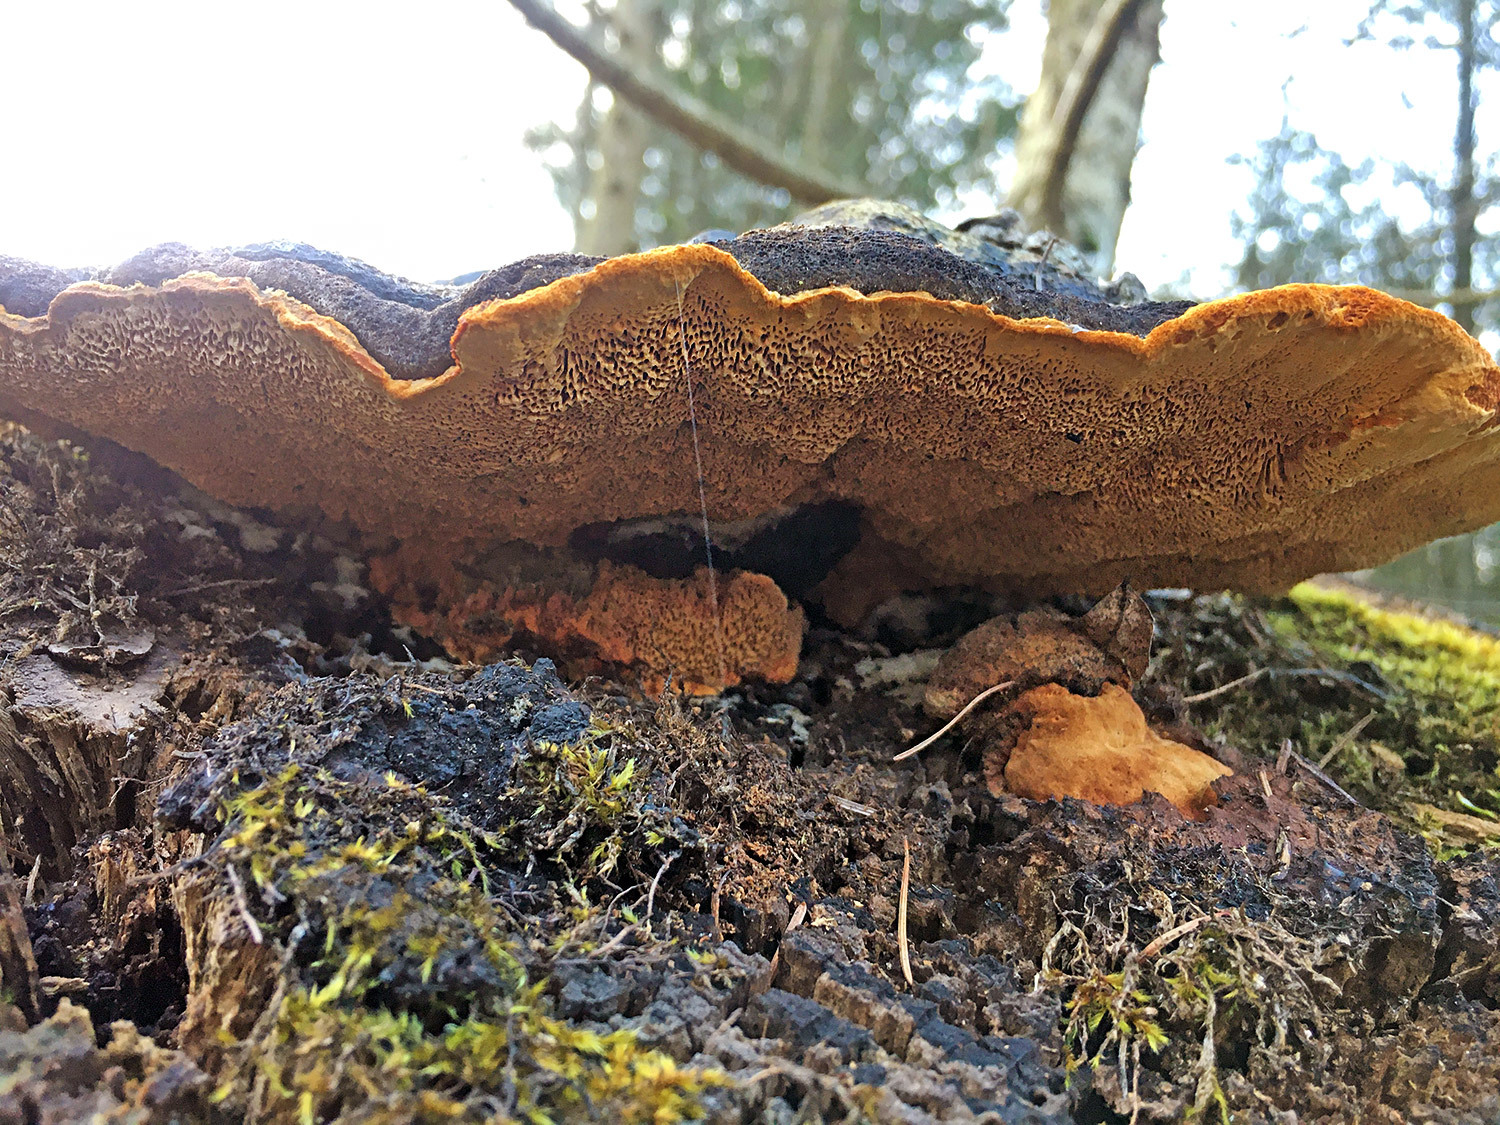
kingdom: Fungi
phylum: Basidiomycota
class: Agaricomycetes
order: Gloeophyllales
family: Gloeophyllaceae
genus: Gloeophyllum
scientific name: Gloeophyllum odoratum
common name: Anise mazegill
